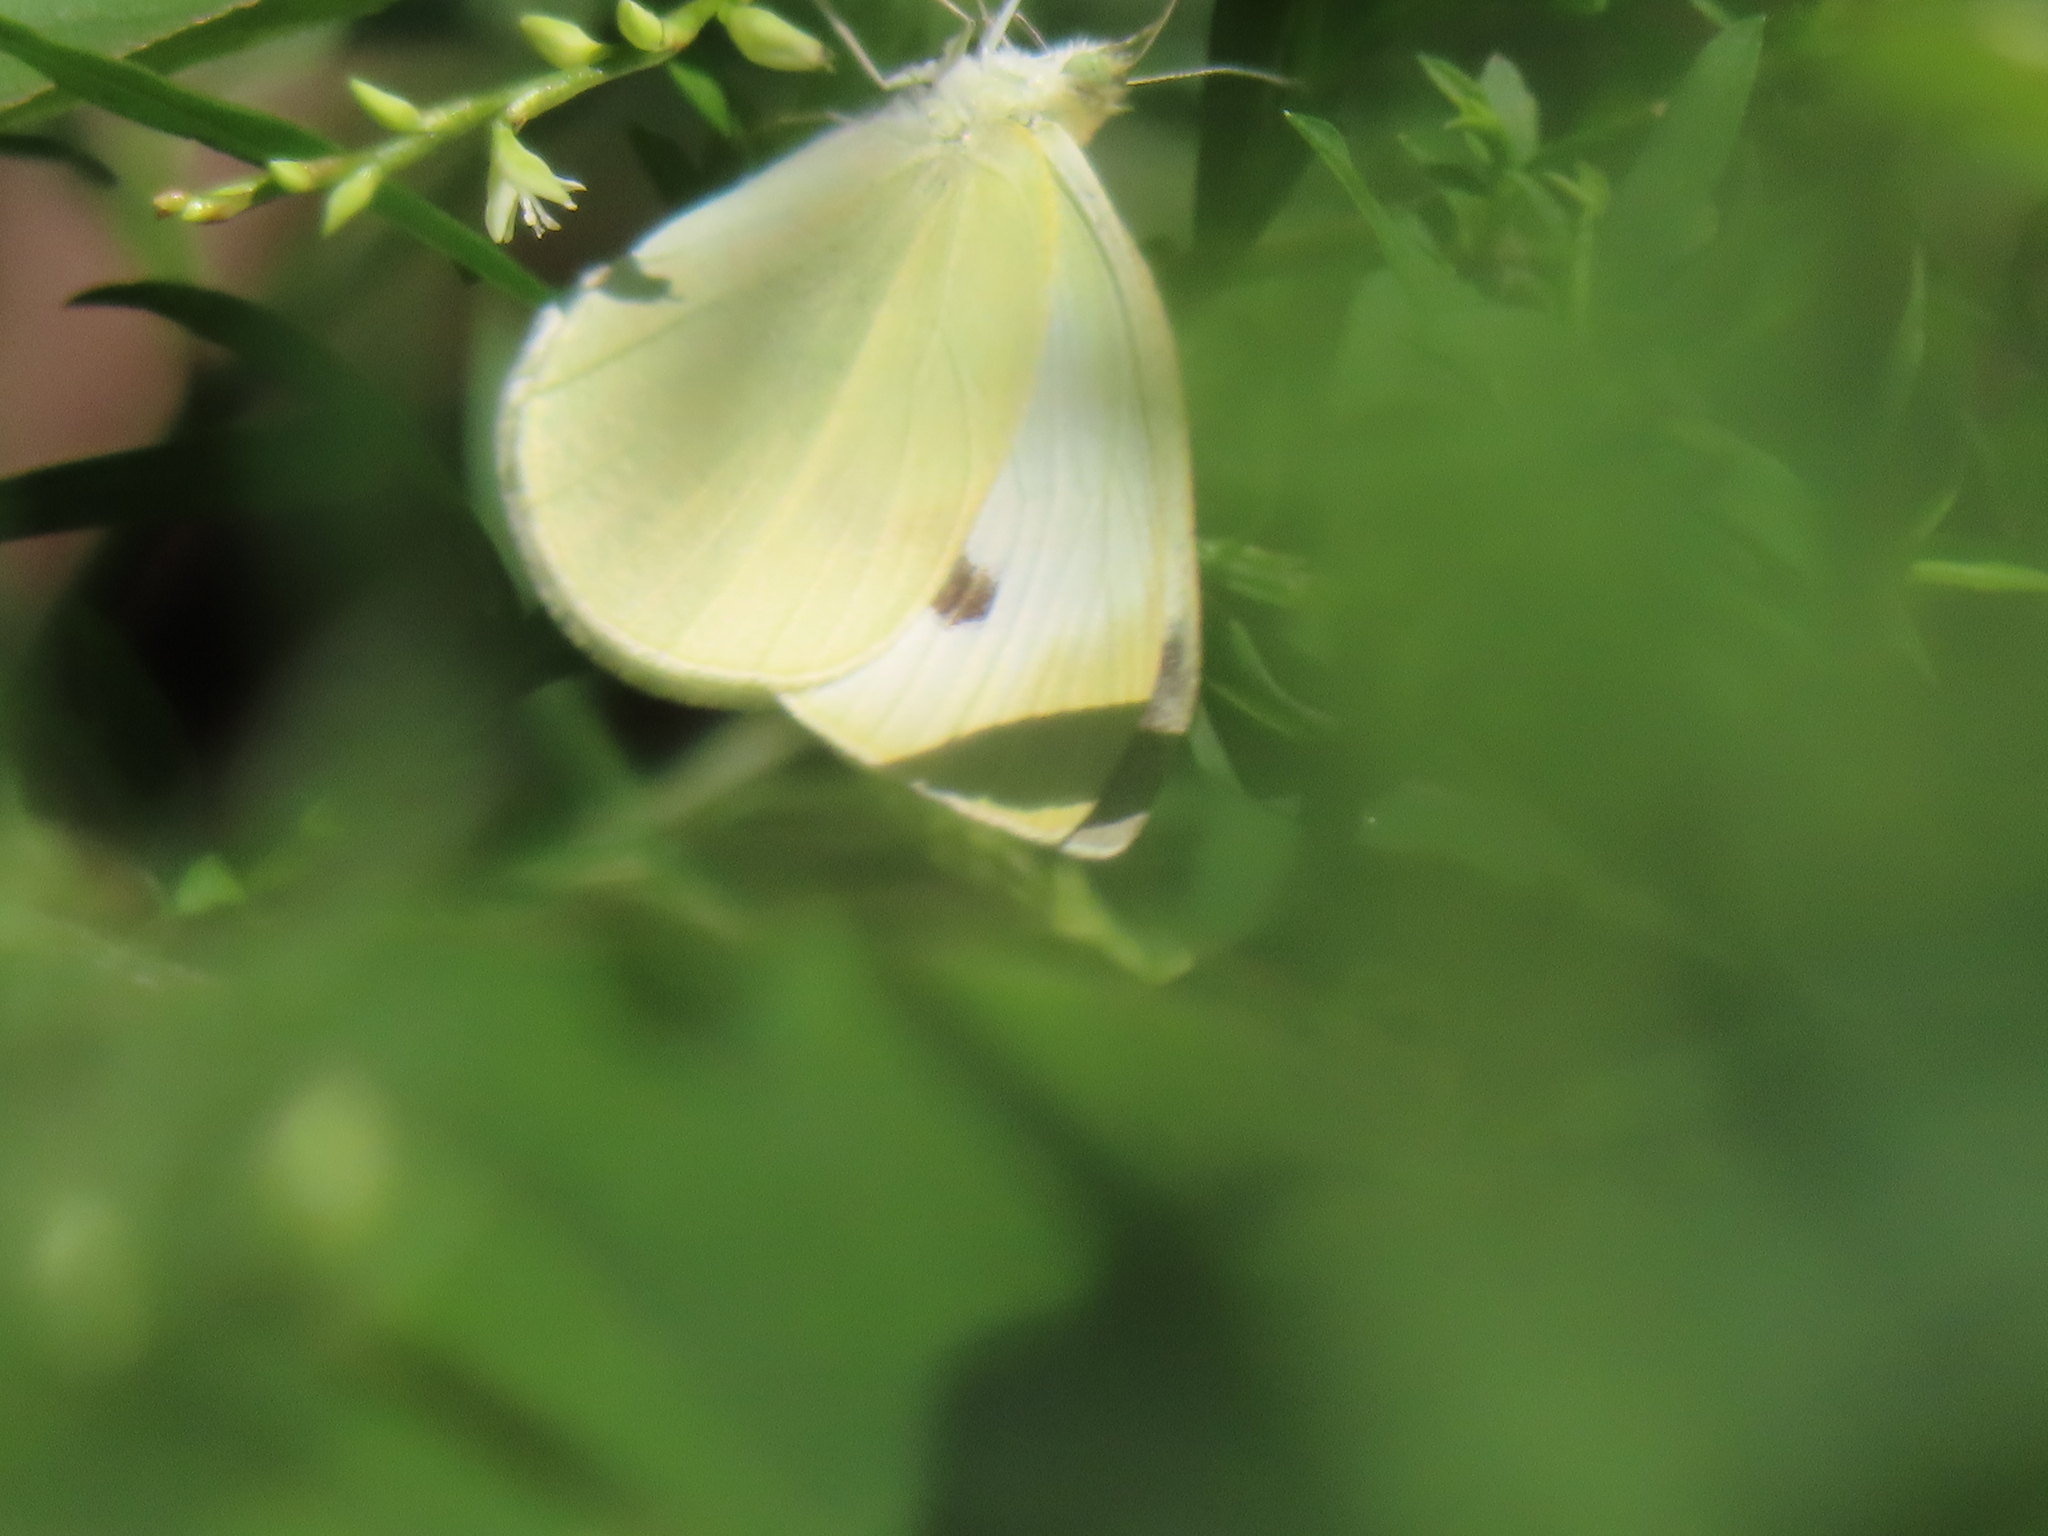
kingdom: Animalia
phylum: Arthropoda
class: Insecta
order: Lepidoptera
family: Pieridae
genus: Pieris
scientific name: Pieris rapae
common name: Small white
